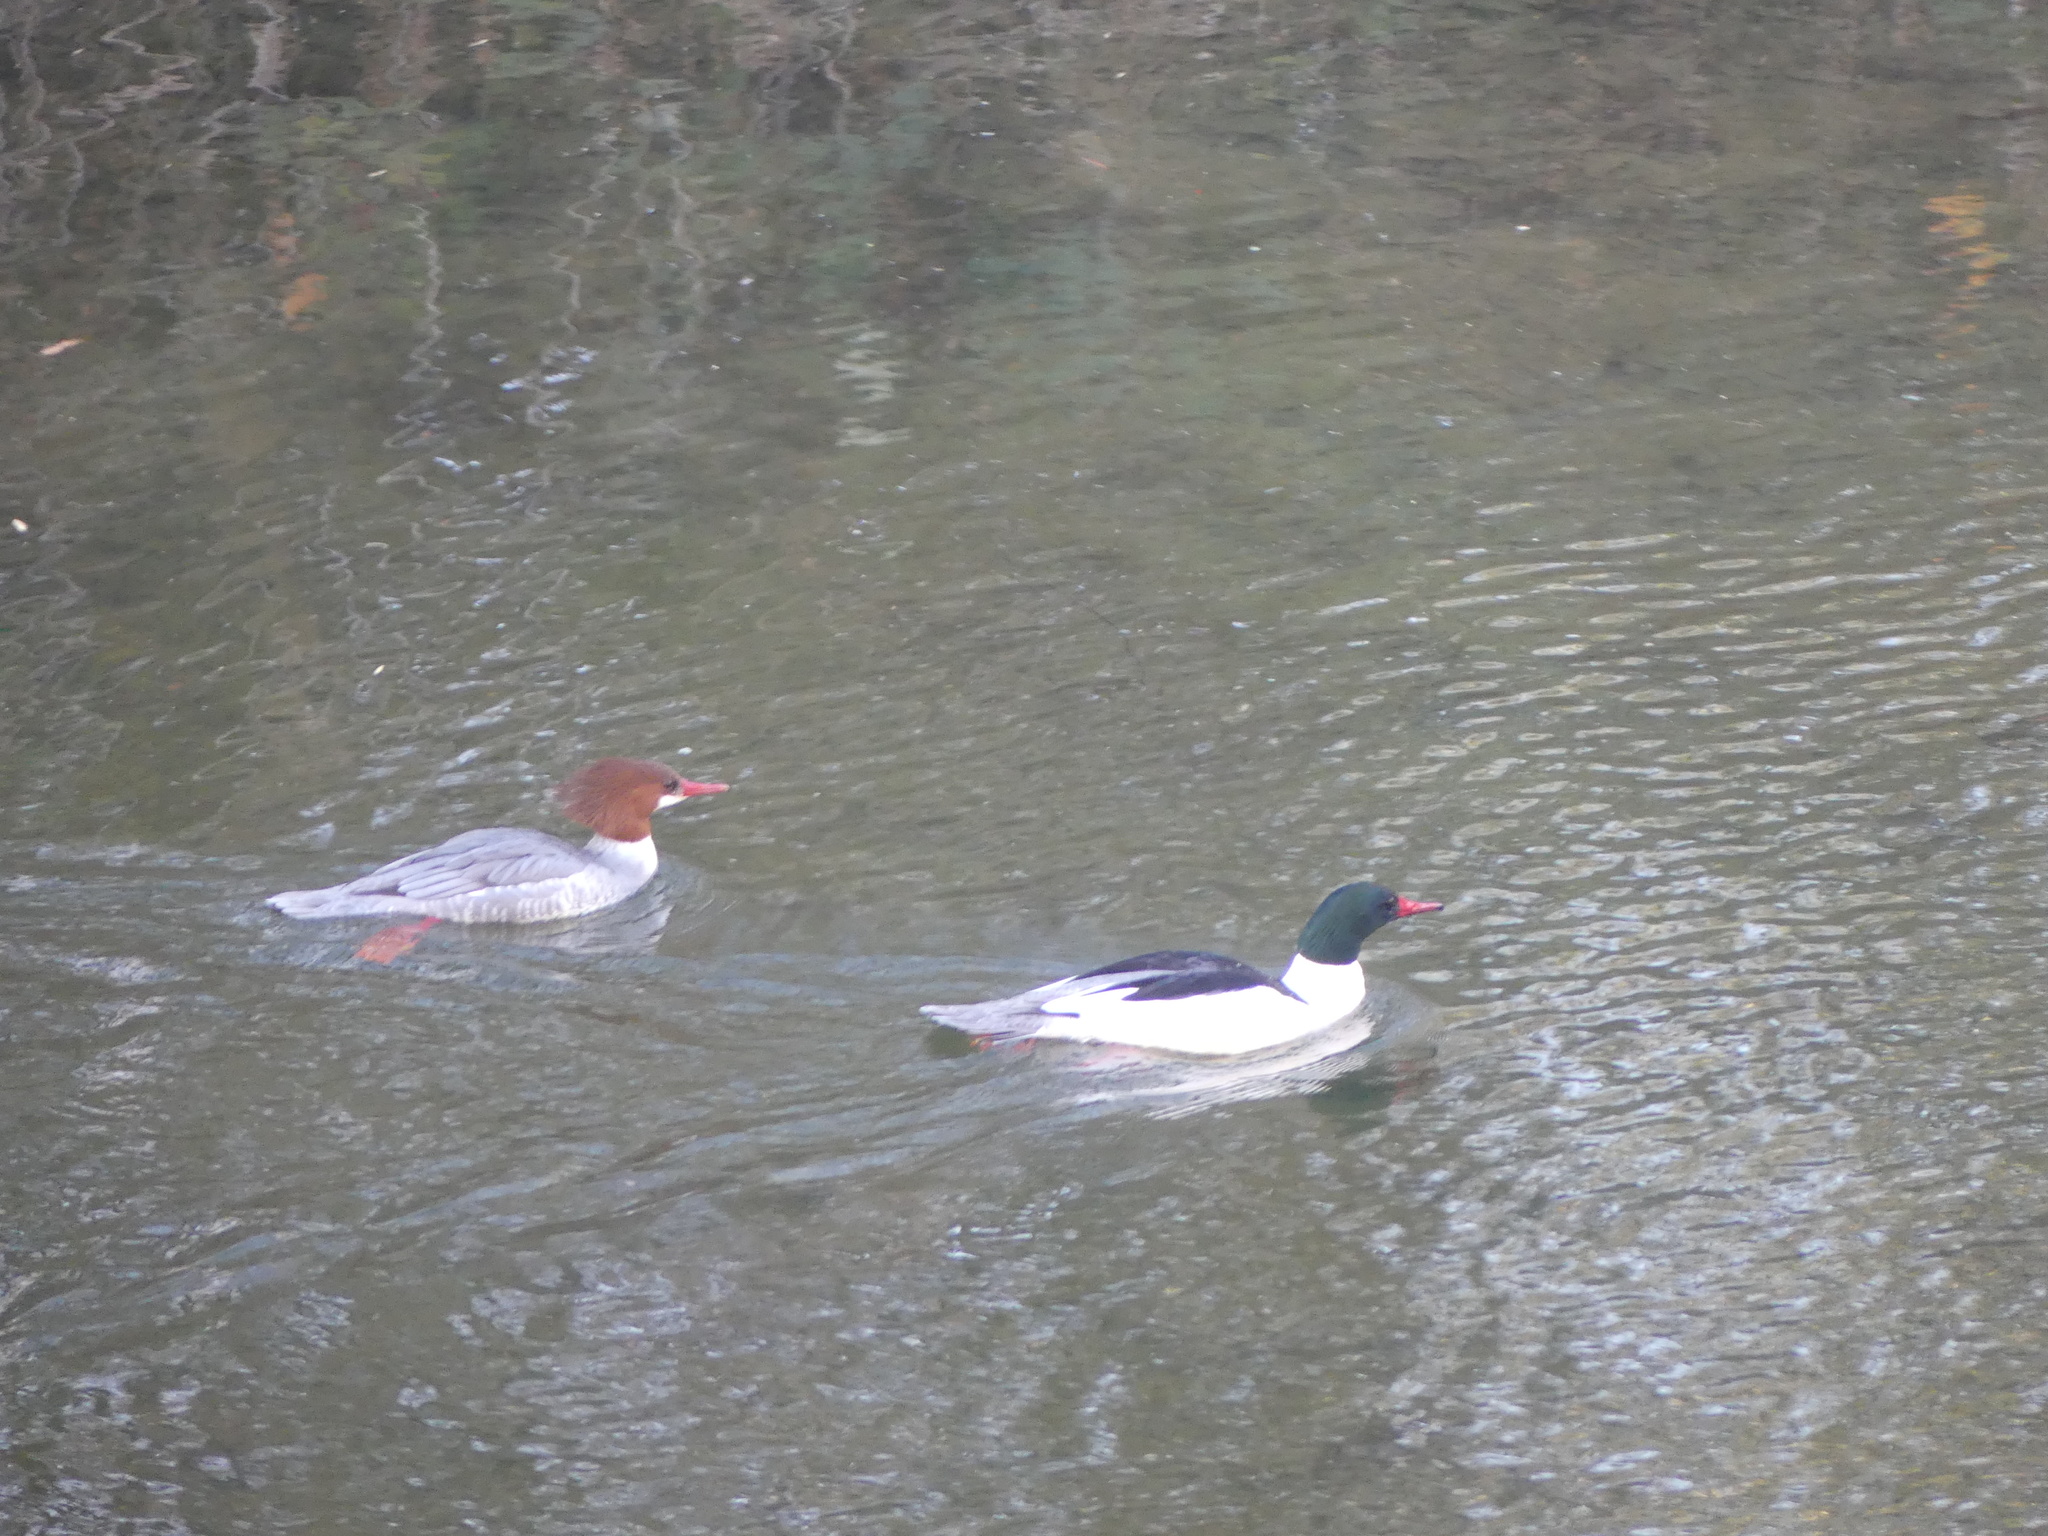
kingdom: Animalia
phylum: Chordata
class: Aves
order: Anseriformes
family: Anatidae
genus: Mergus
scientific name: Mergus merganser
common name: Common merganser
